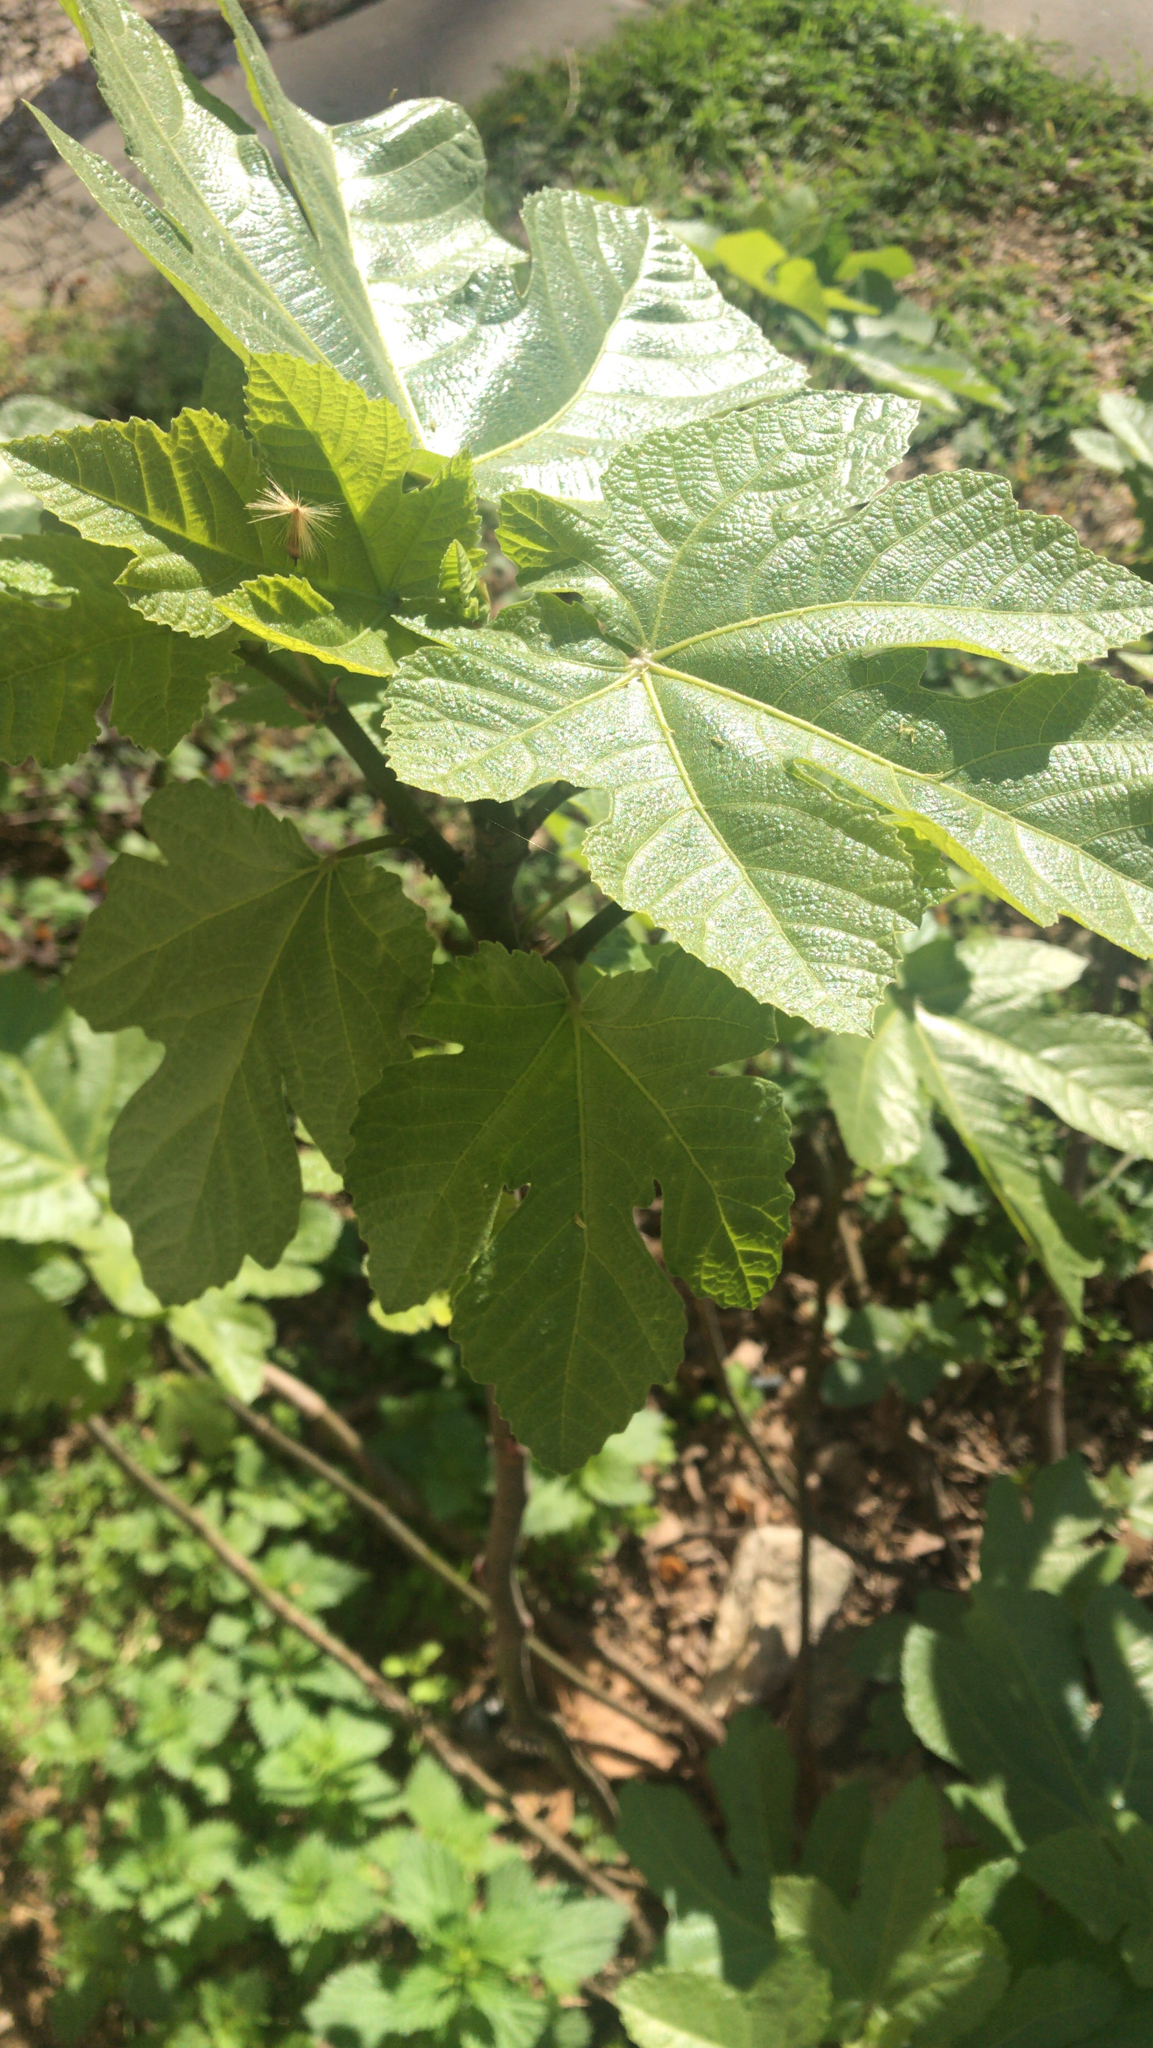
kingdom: Plantae
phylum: Tracheophyta
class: Magnoliopsida
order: Rosales
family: Moraceae
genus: Ficus
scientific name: Ficus carica
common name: Fig
